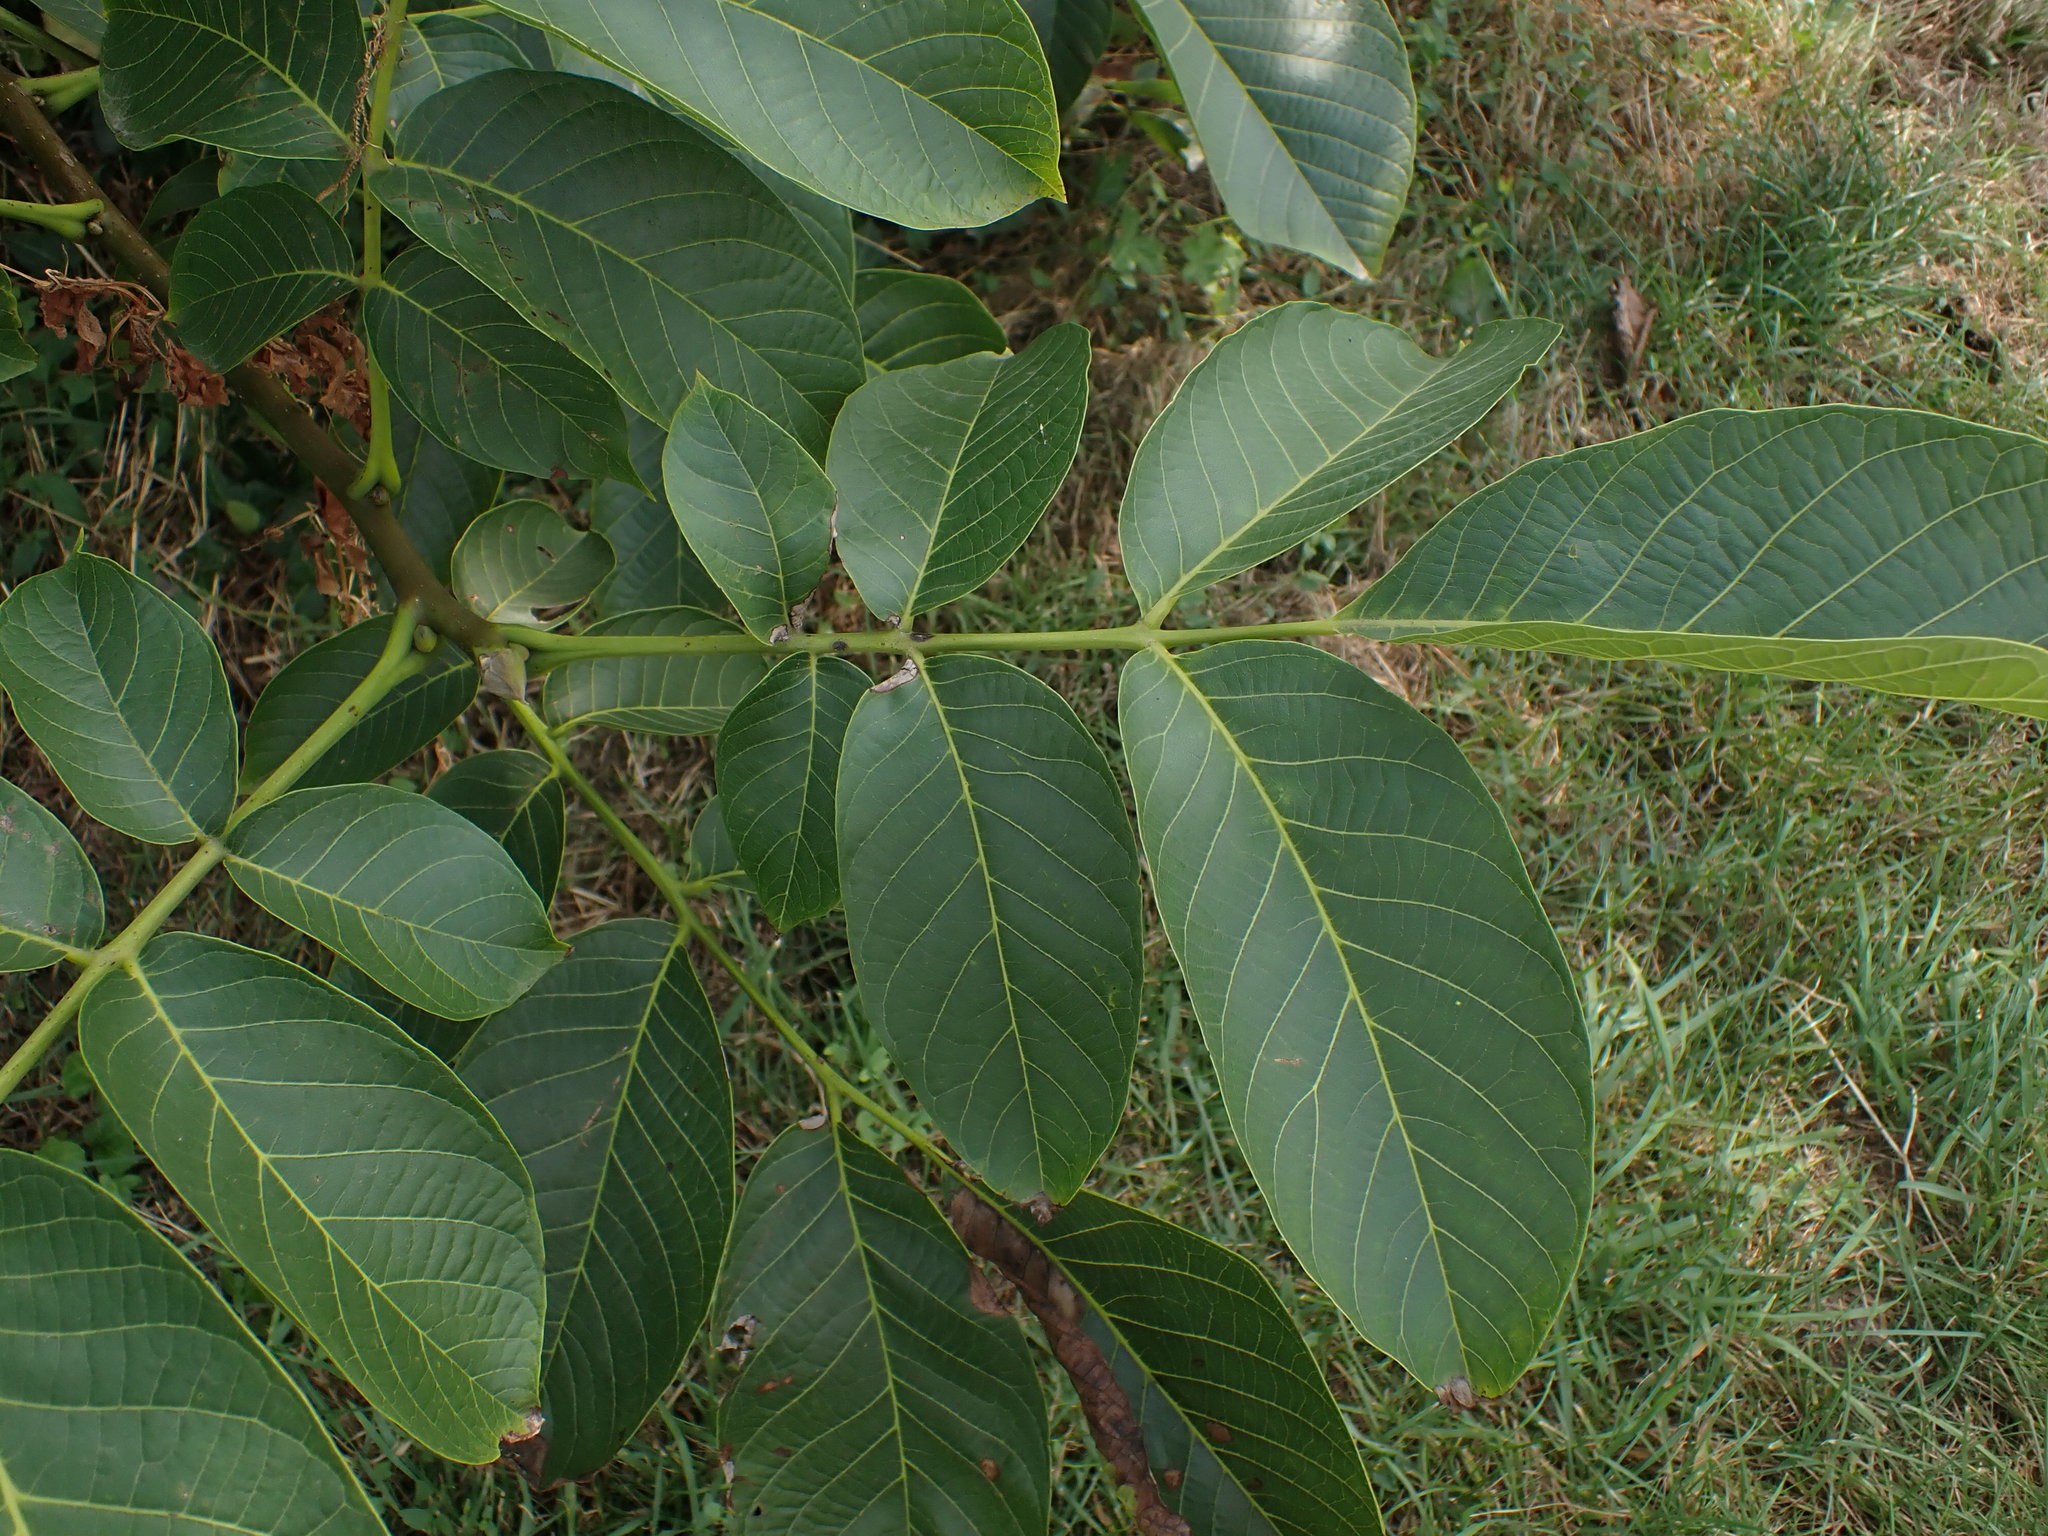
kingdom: Plantae
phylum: Tracheophyta
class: Magnoliopsida
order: Fagales
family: Juglandaceae
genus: Juglans
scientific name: Juglans regia
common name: Walnut
